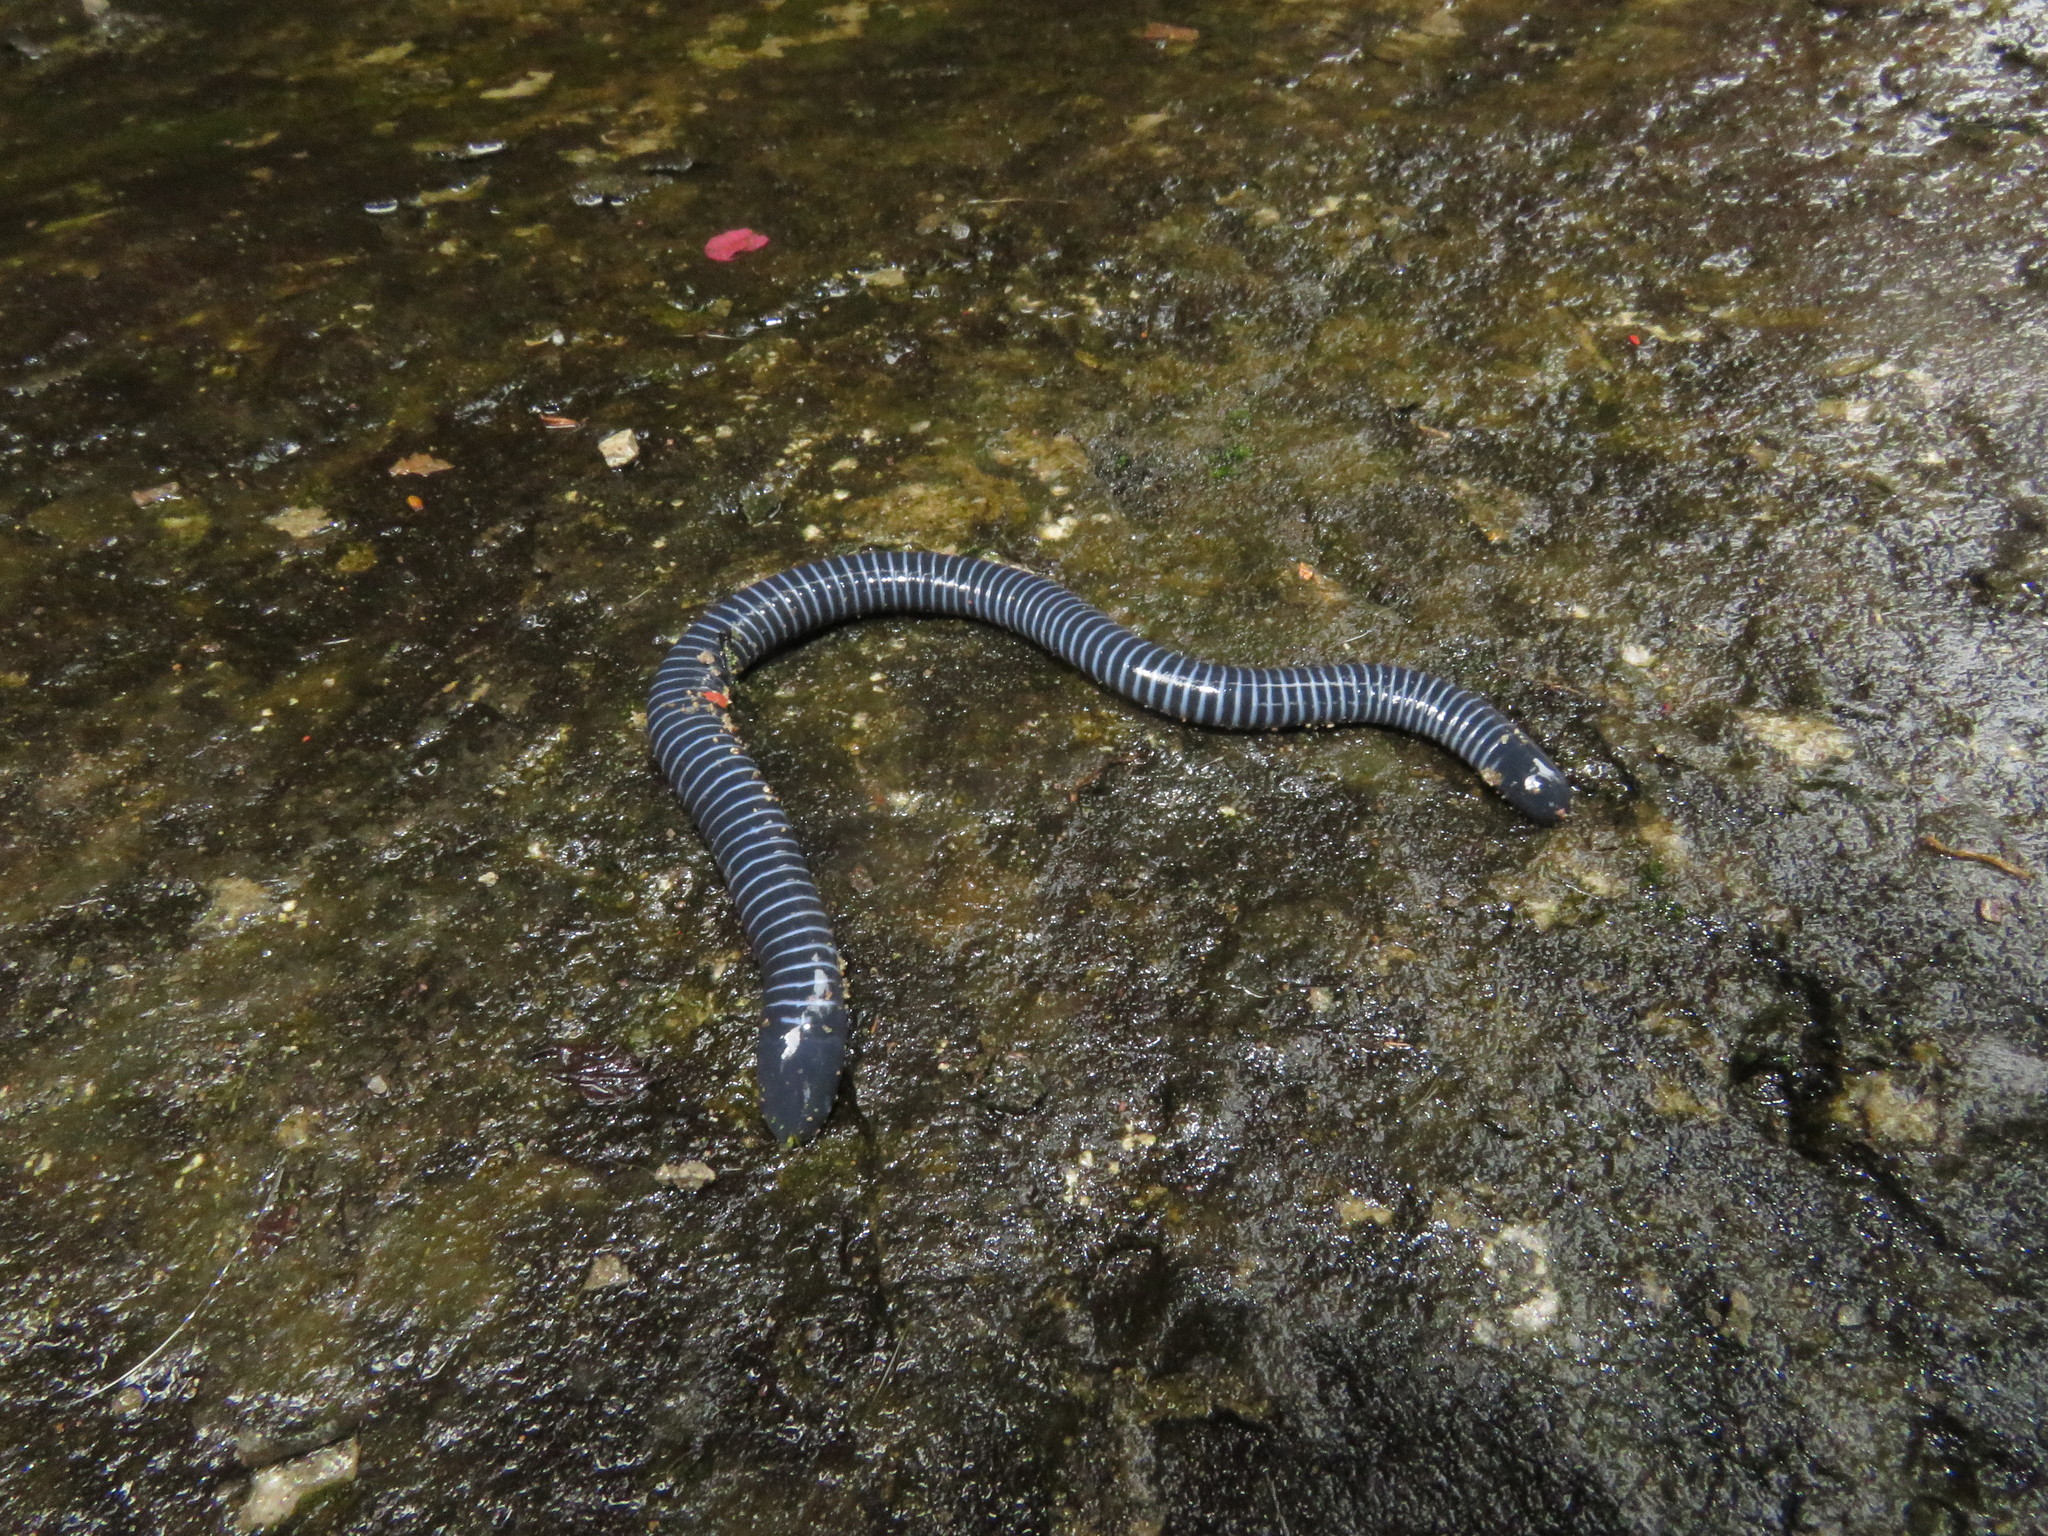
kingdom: Animalia
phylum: Chordata
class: Amphibia
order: Gymnophiona
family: Siphonopidae
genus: Siphonops
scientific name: Siphonops annulatus
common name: Ringed caecilia
